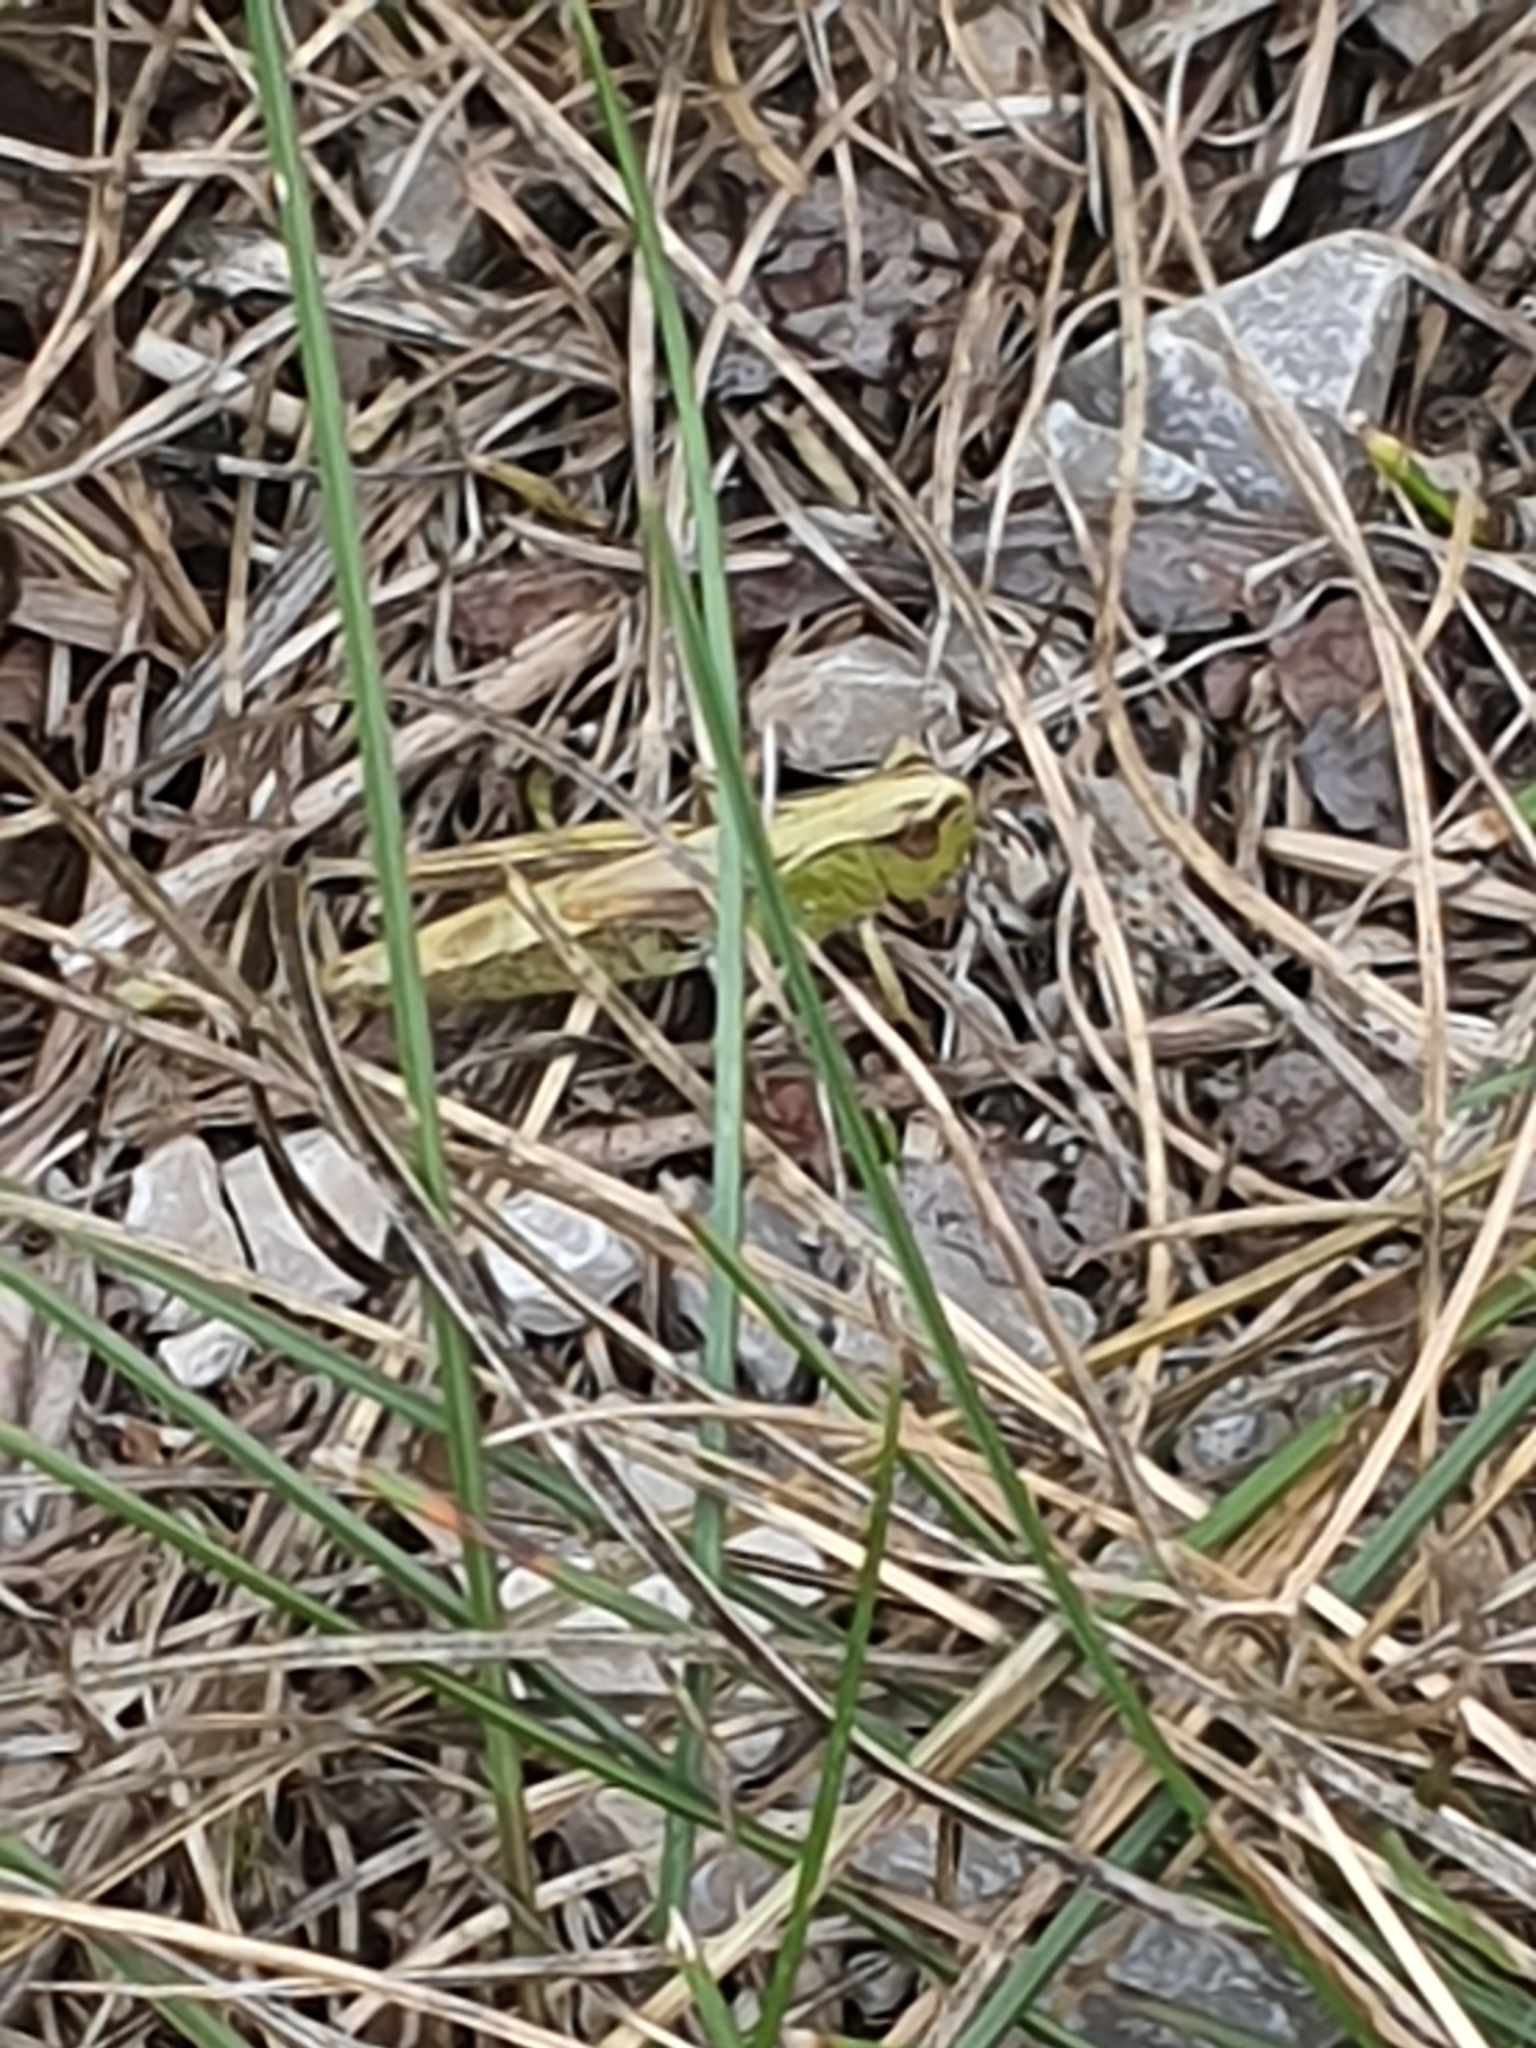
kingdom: Animalia
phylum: Arthropoda
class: Insecta
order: Orthoptera
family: Acrididae
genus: Pseudochorthippus
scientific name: Pseudochorthippus parallelus
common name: Meadow grasshopper
